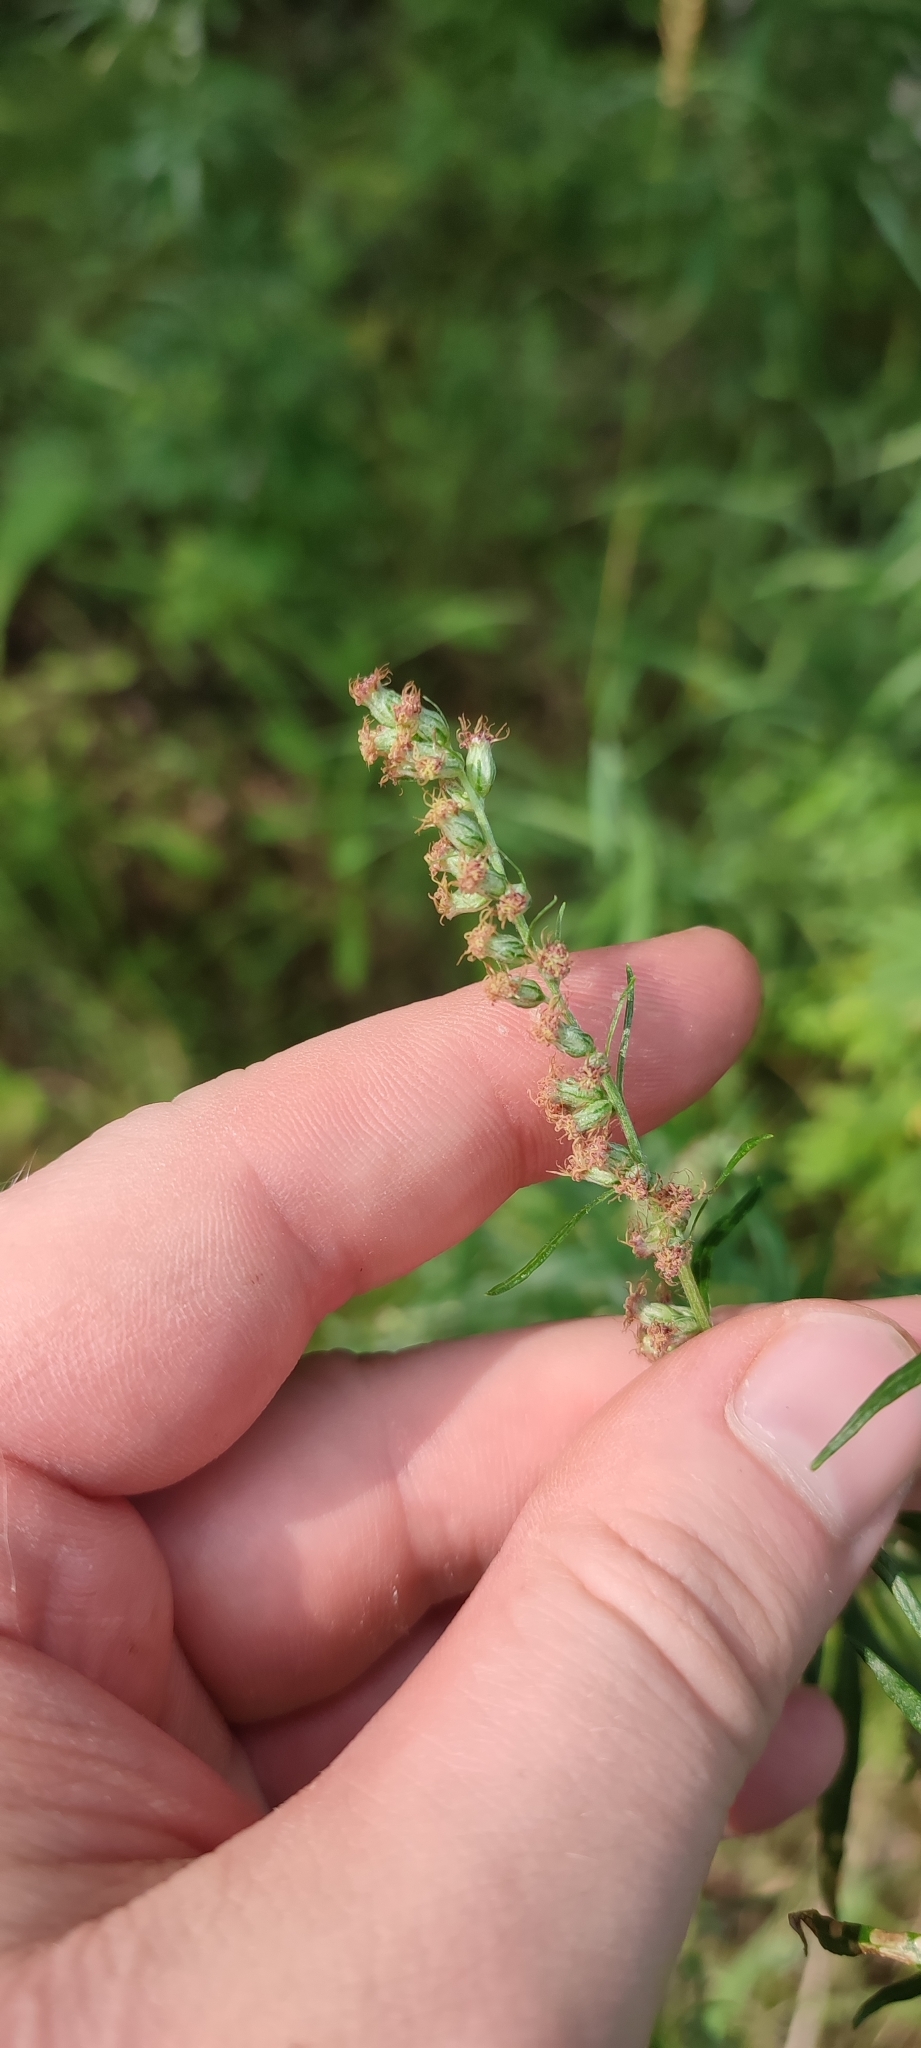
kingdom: Plantae
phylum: Tracheophyta
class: Magnoliopsida
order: Asterales
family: Asteraceae
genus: Artemisia
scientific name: Artemisia vulgaris
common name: Mugwort
